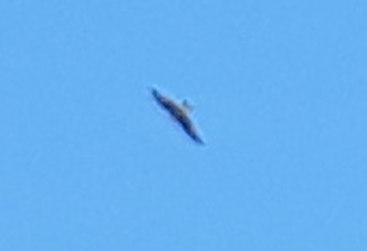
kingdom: Animalia
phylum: Chordata
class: Aves
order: Accipitriformes
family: Accipitridae
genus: Milvus
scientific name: Milvus milvus
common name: Red kite
